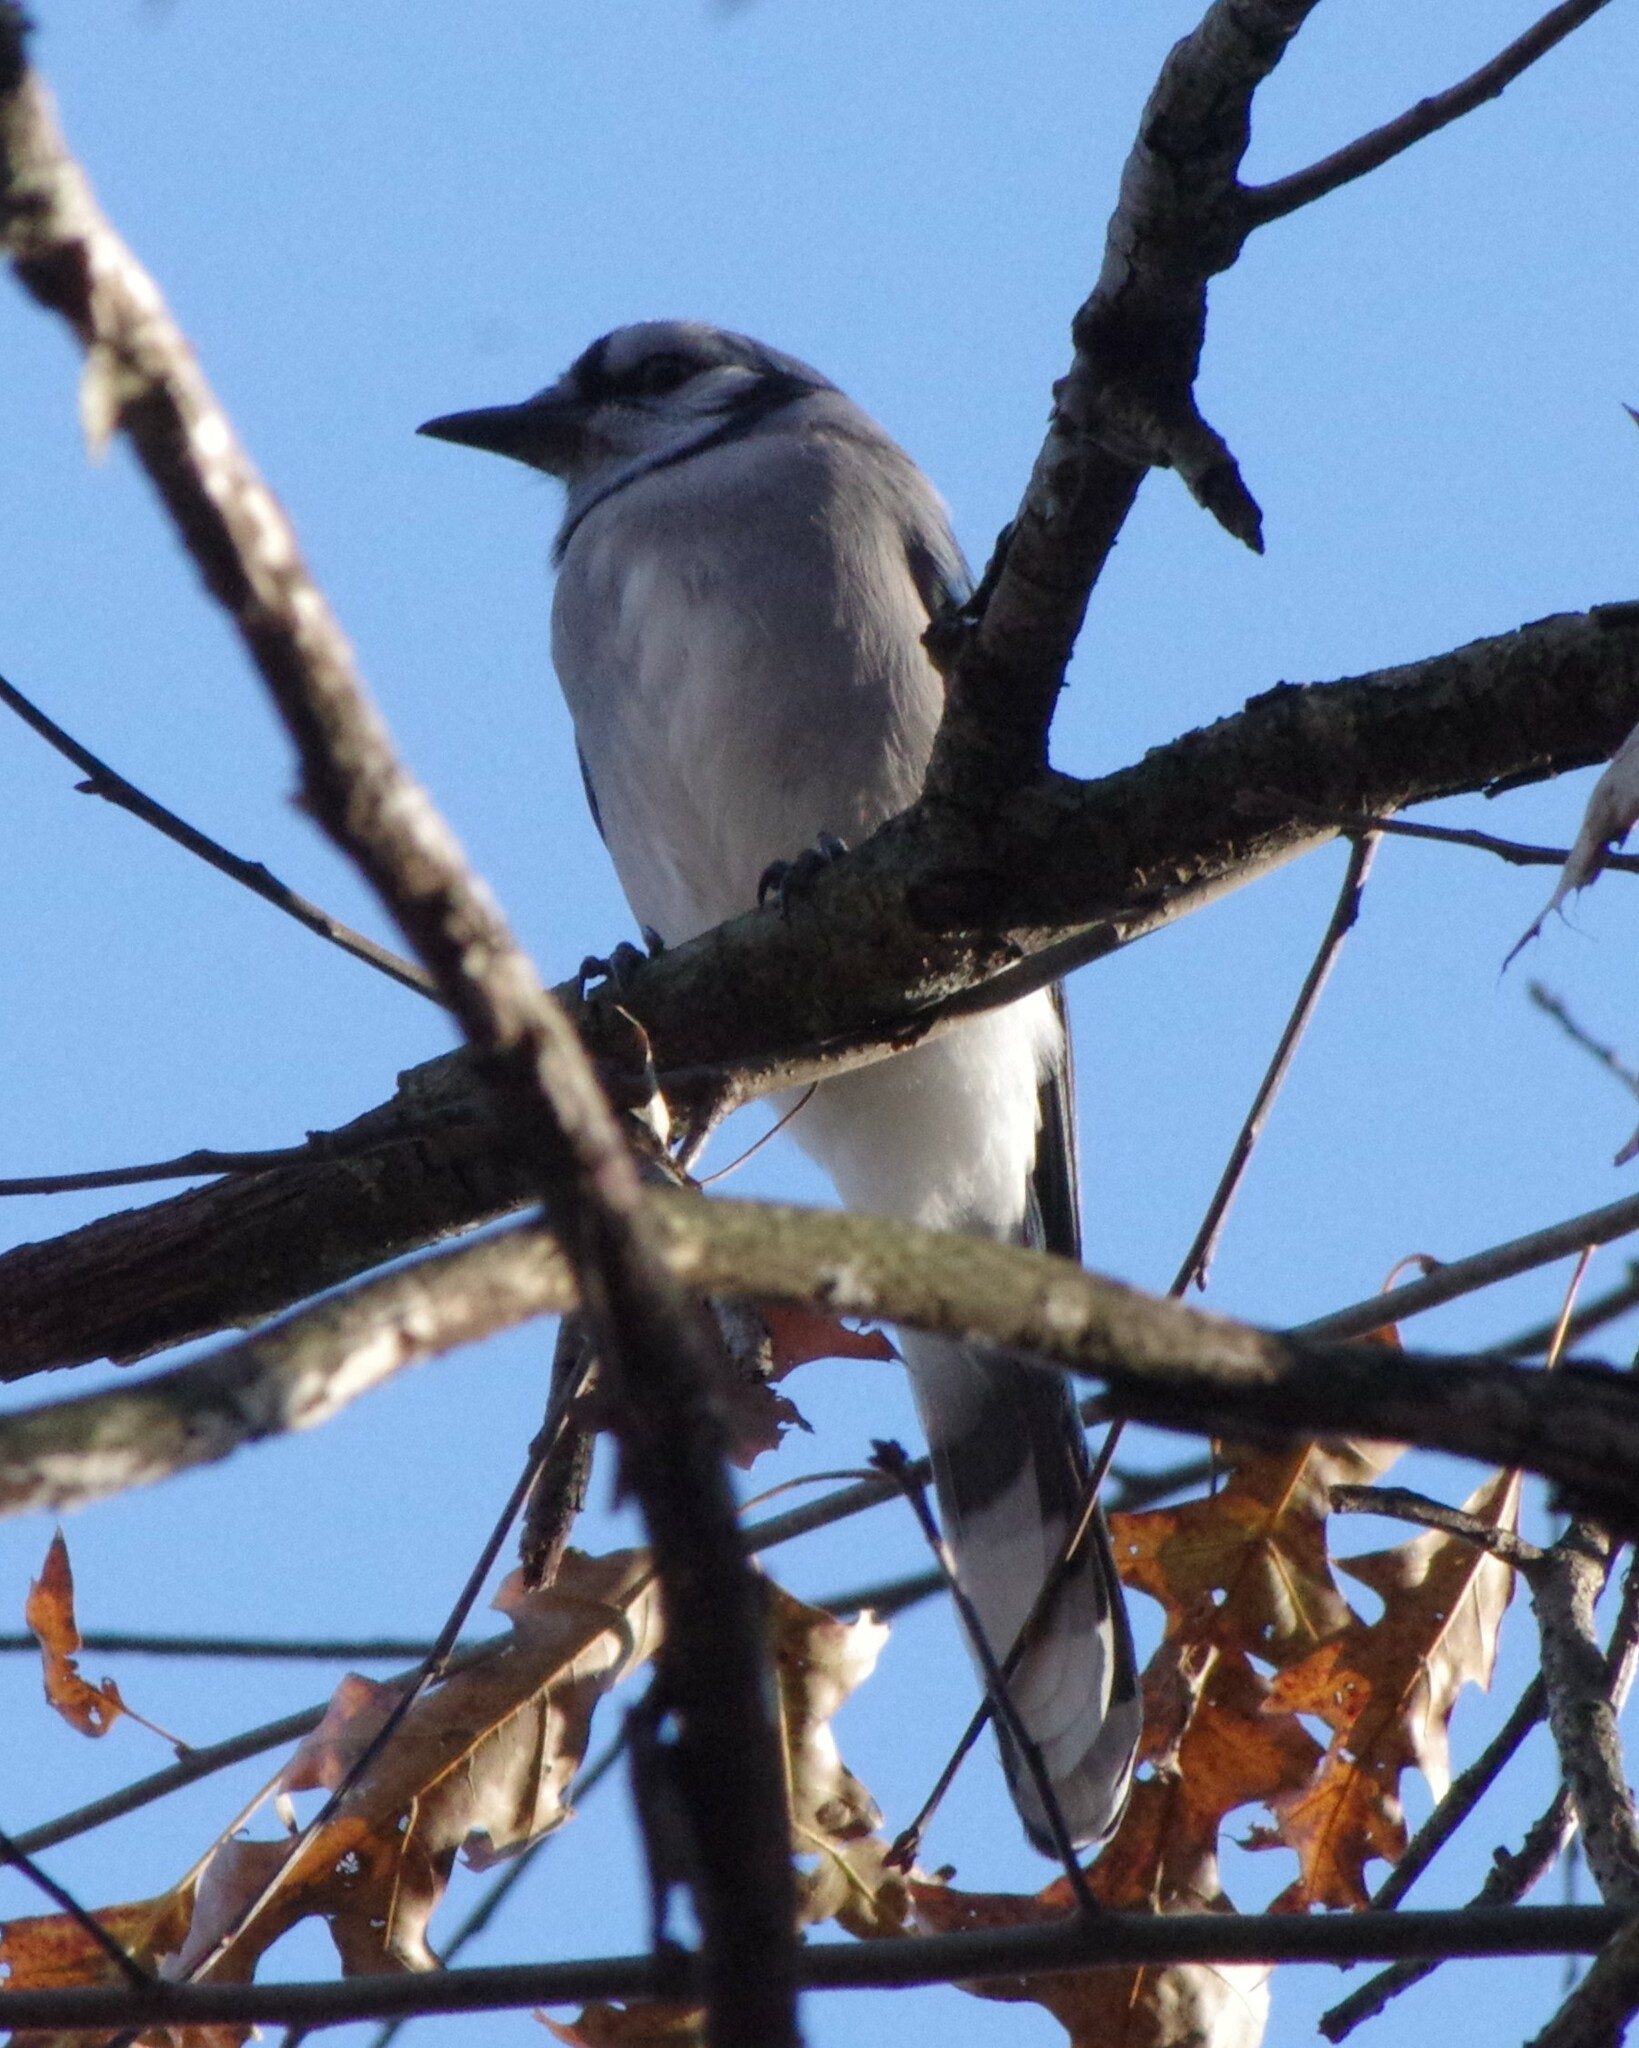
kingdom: Animalia
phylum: Chordata
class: Aves
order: Passeriformes
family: Corvidae
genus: Cyanocitta
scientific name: Cyanocitta cristata
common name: Blue jay
